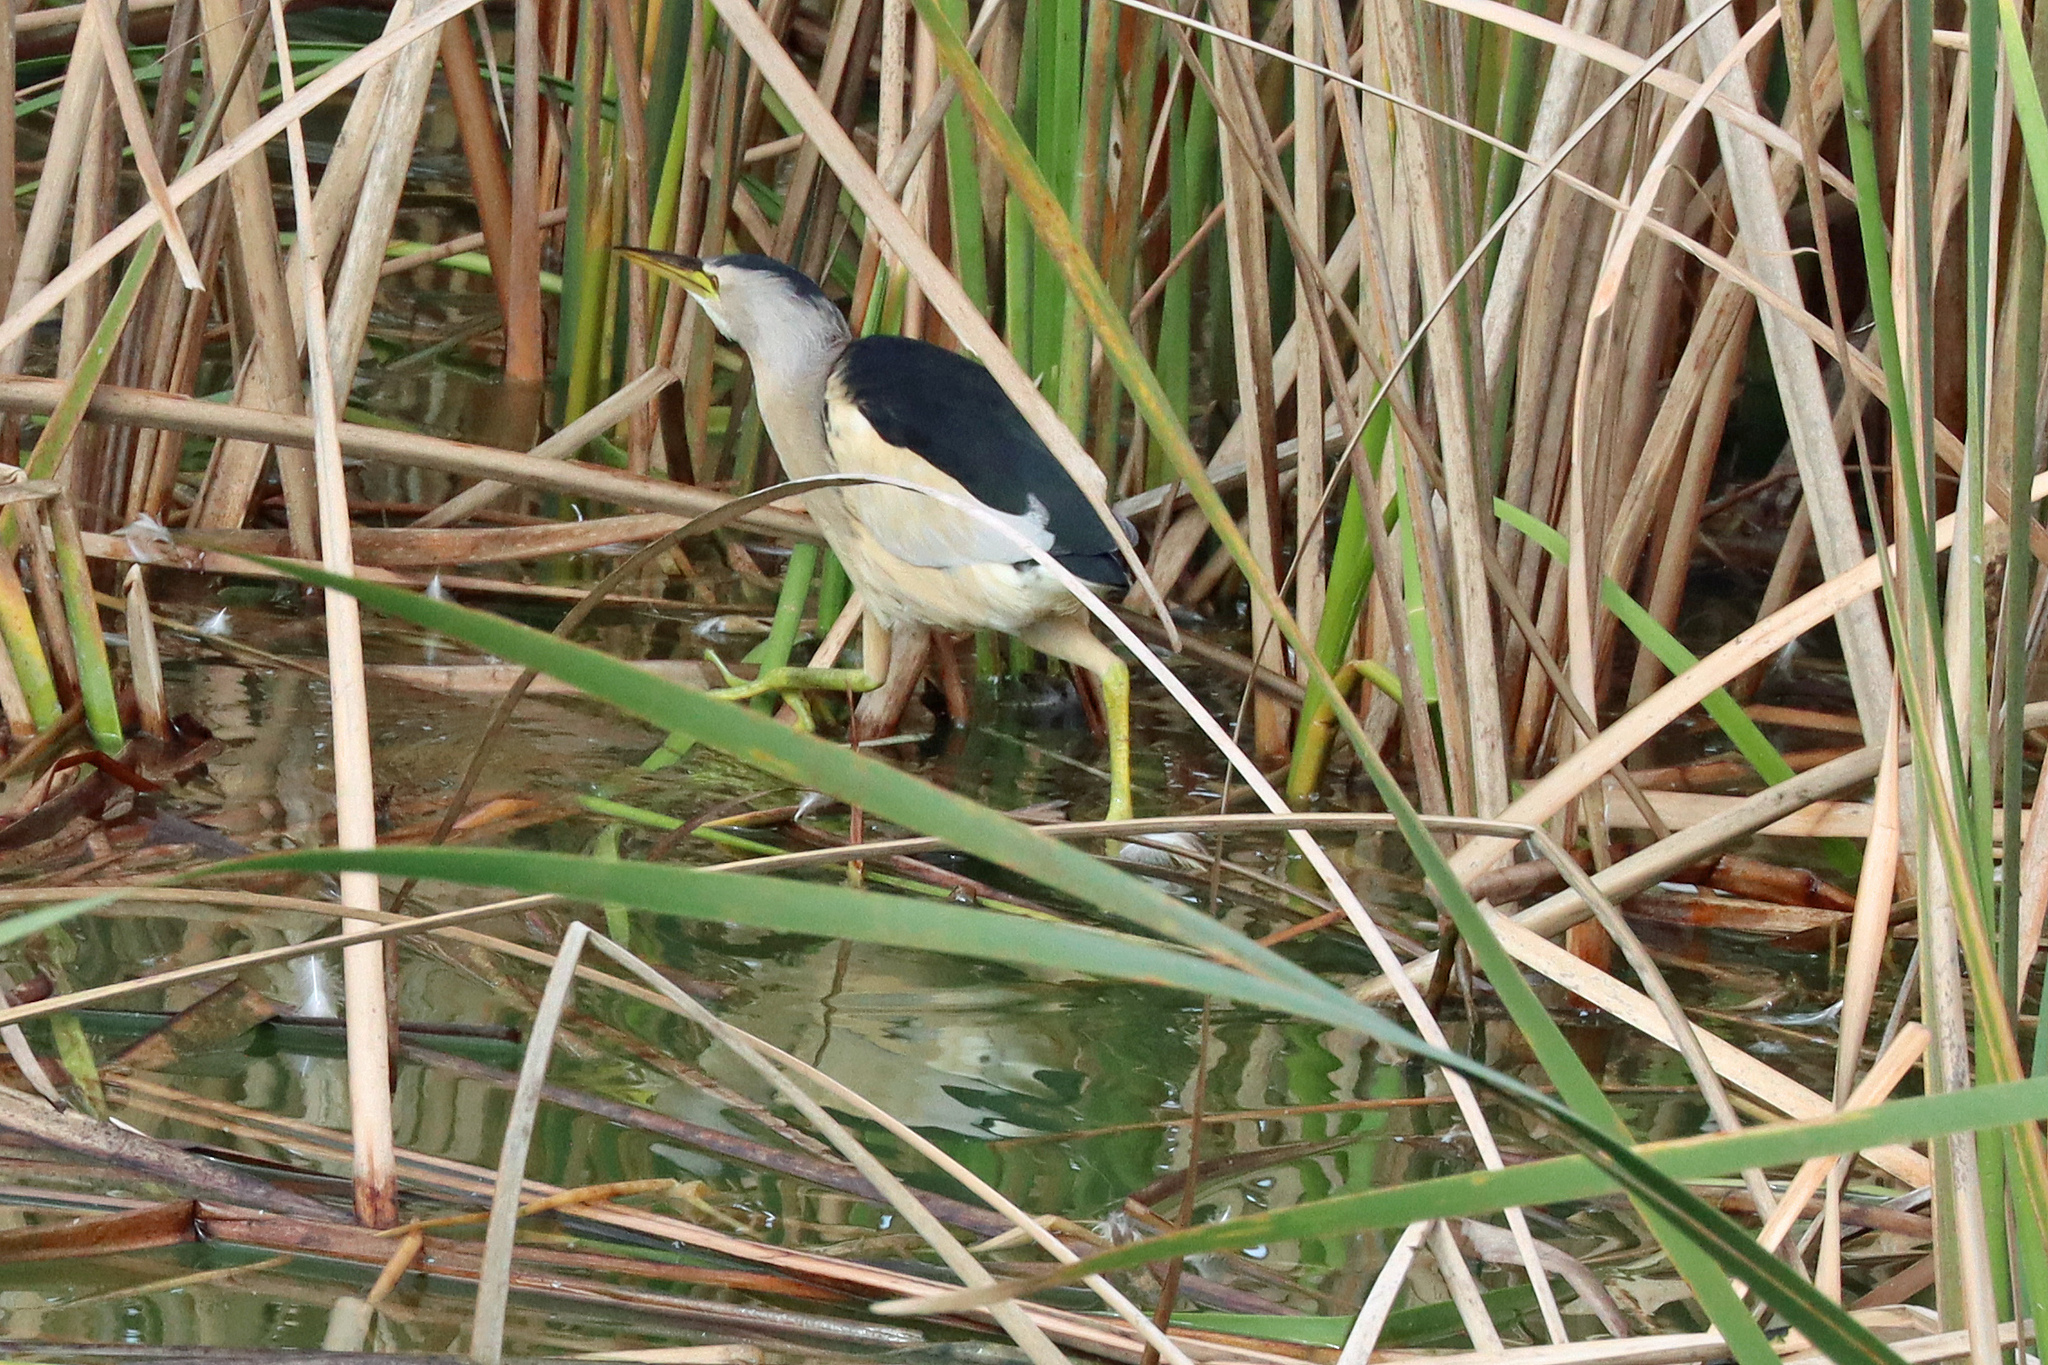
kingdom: Animalia
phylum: Chordata
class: Aves
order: Pelecaniformes
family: Ardeidae
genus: Ixobrychus
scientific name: Ixobrychus minutus
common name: Little bittern
